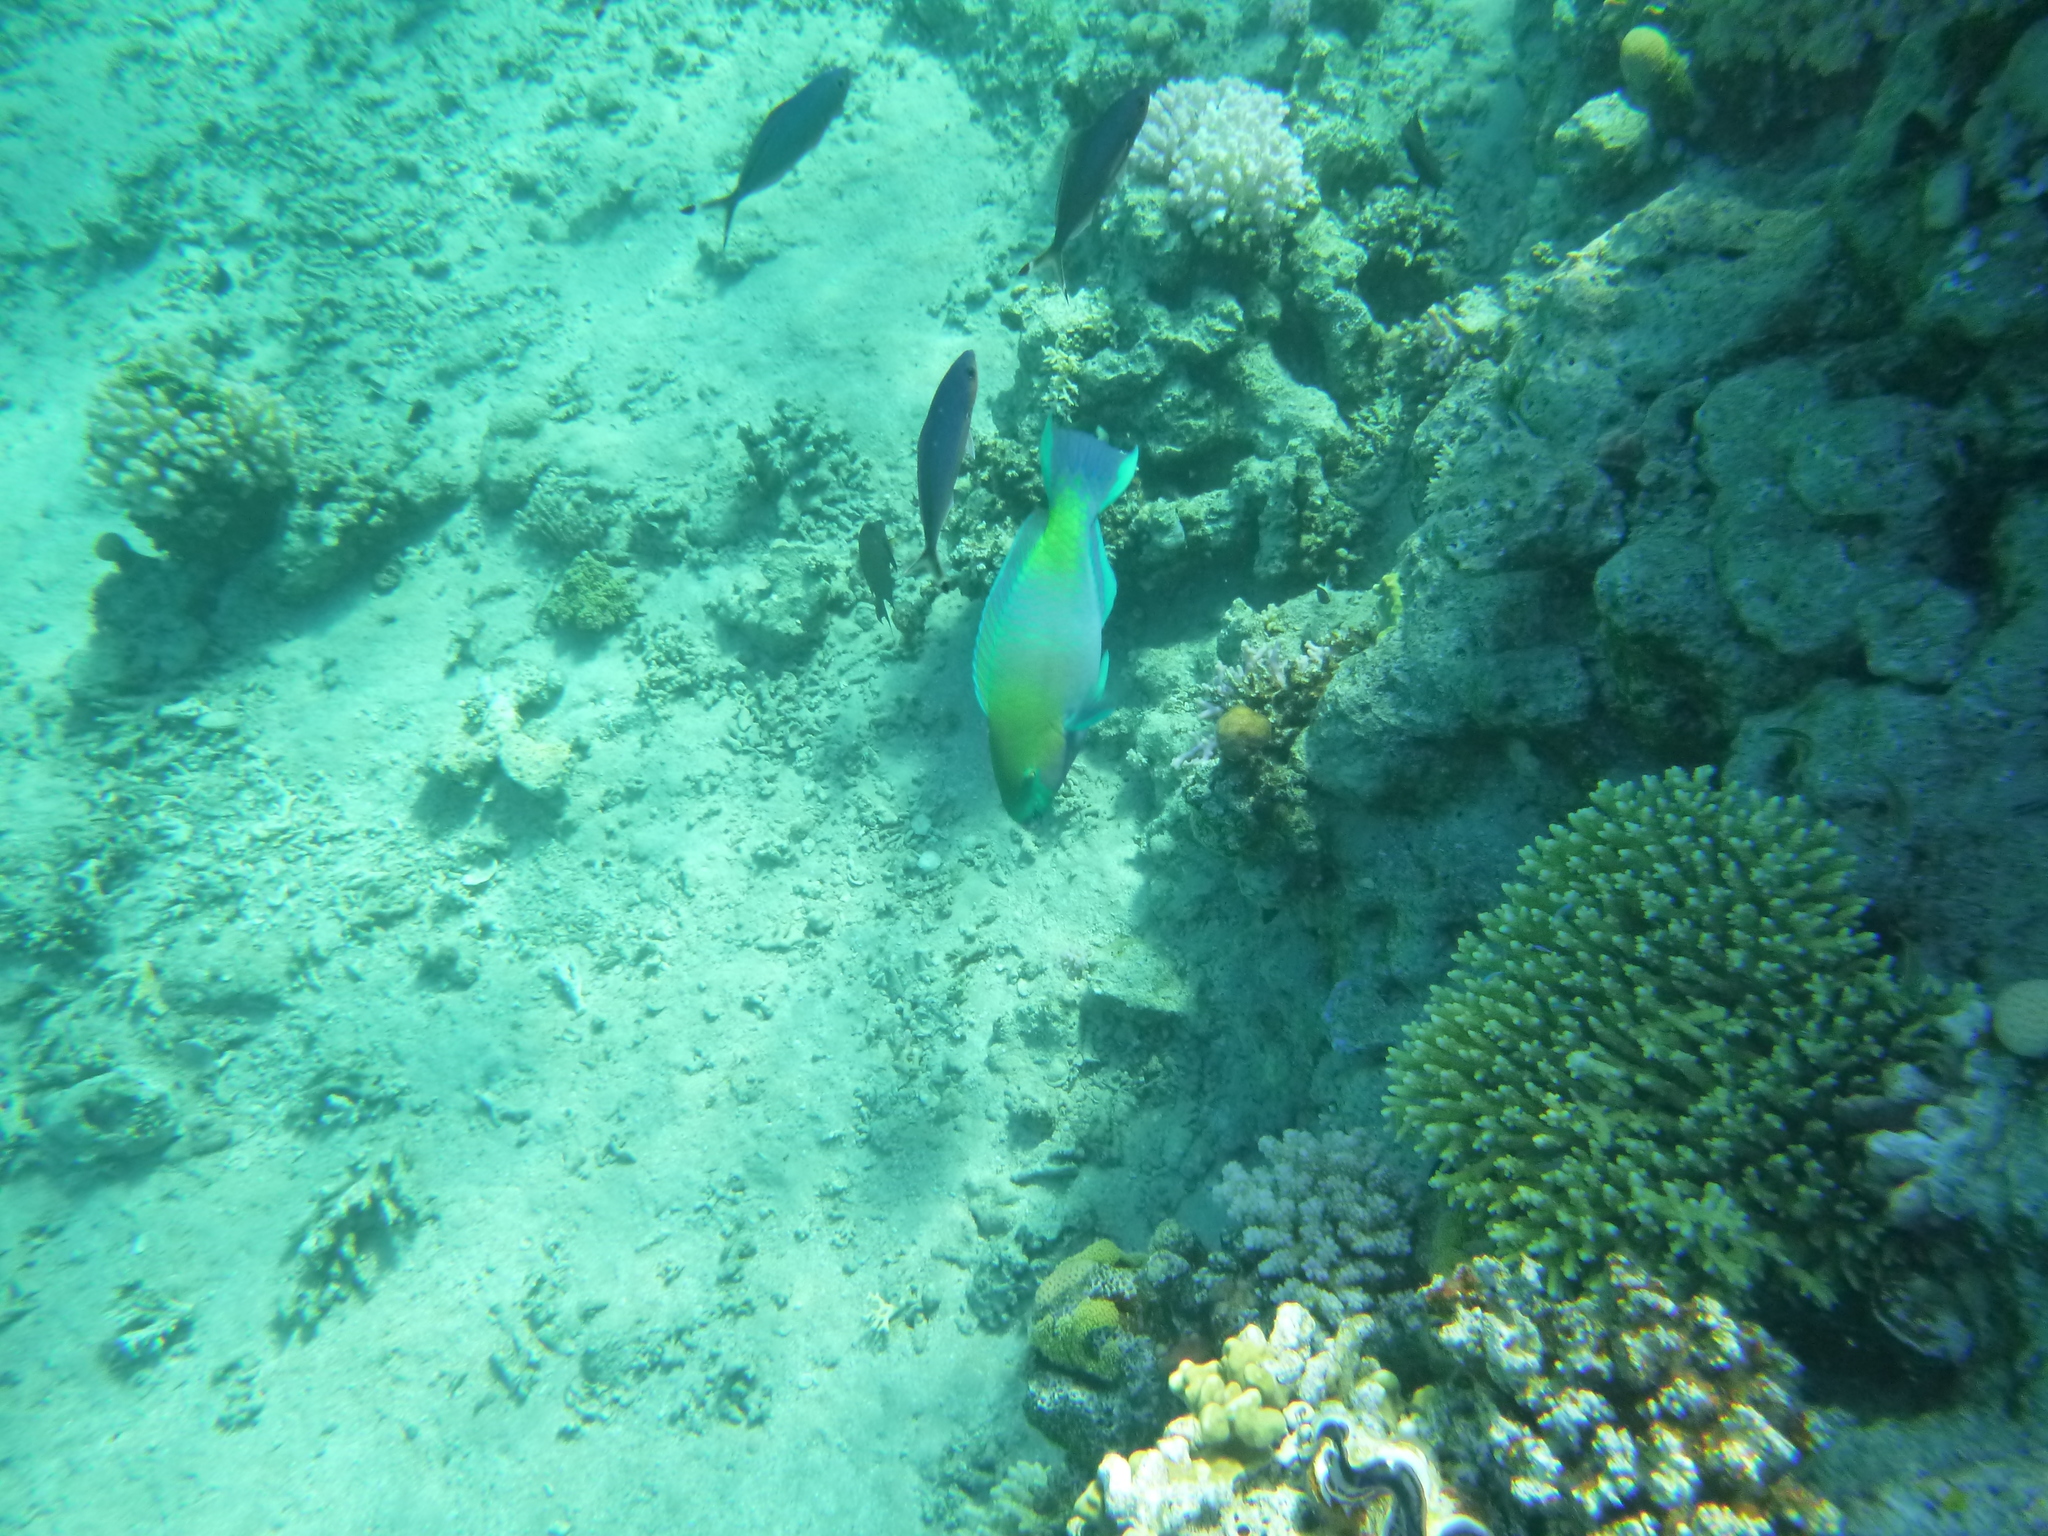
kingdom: Animalia
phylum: Chordata
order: Perciformes
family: Scaridae
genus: Chlorurus
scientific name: Chlorurus sordidus
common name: Bullethead parrotfish
